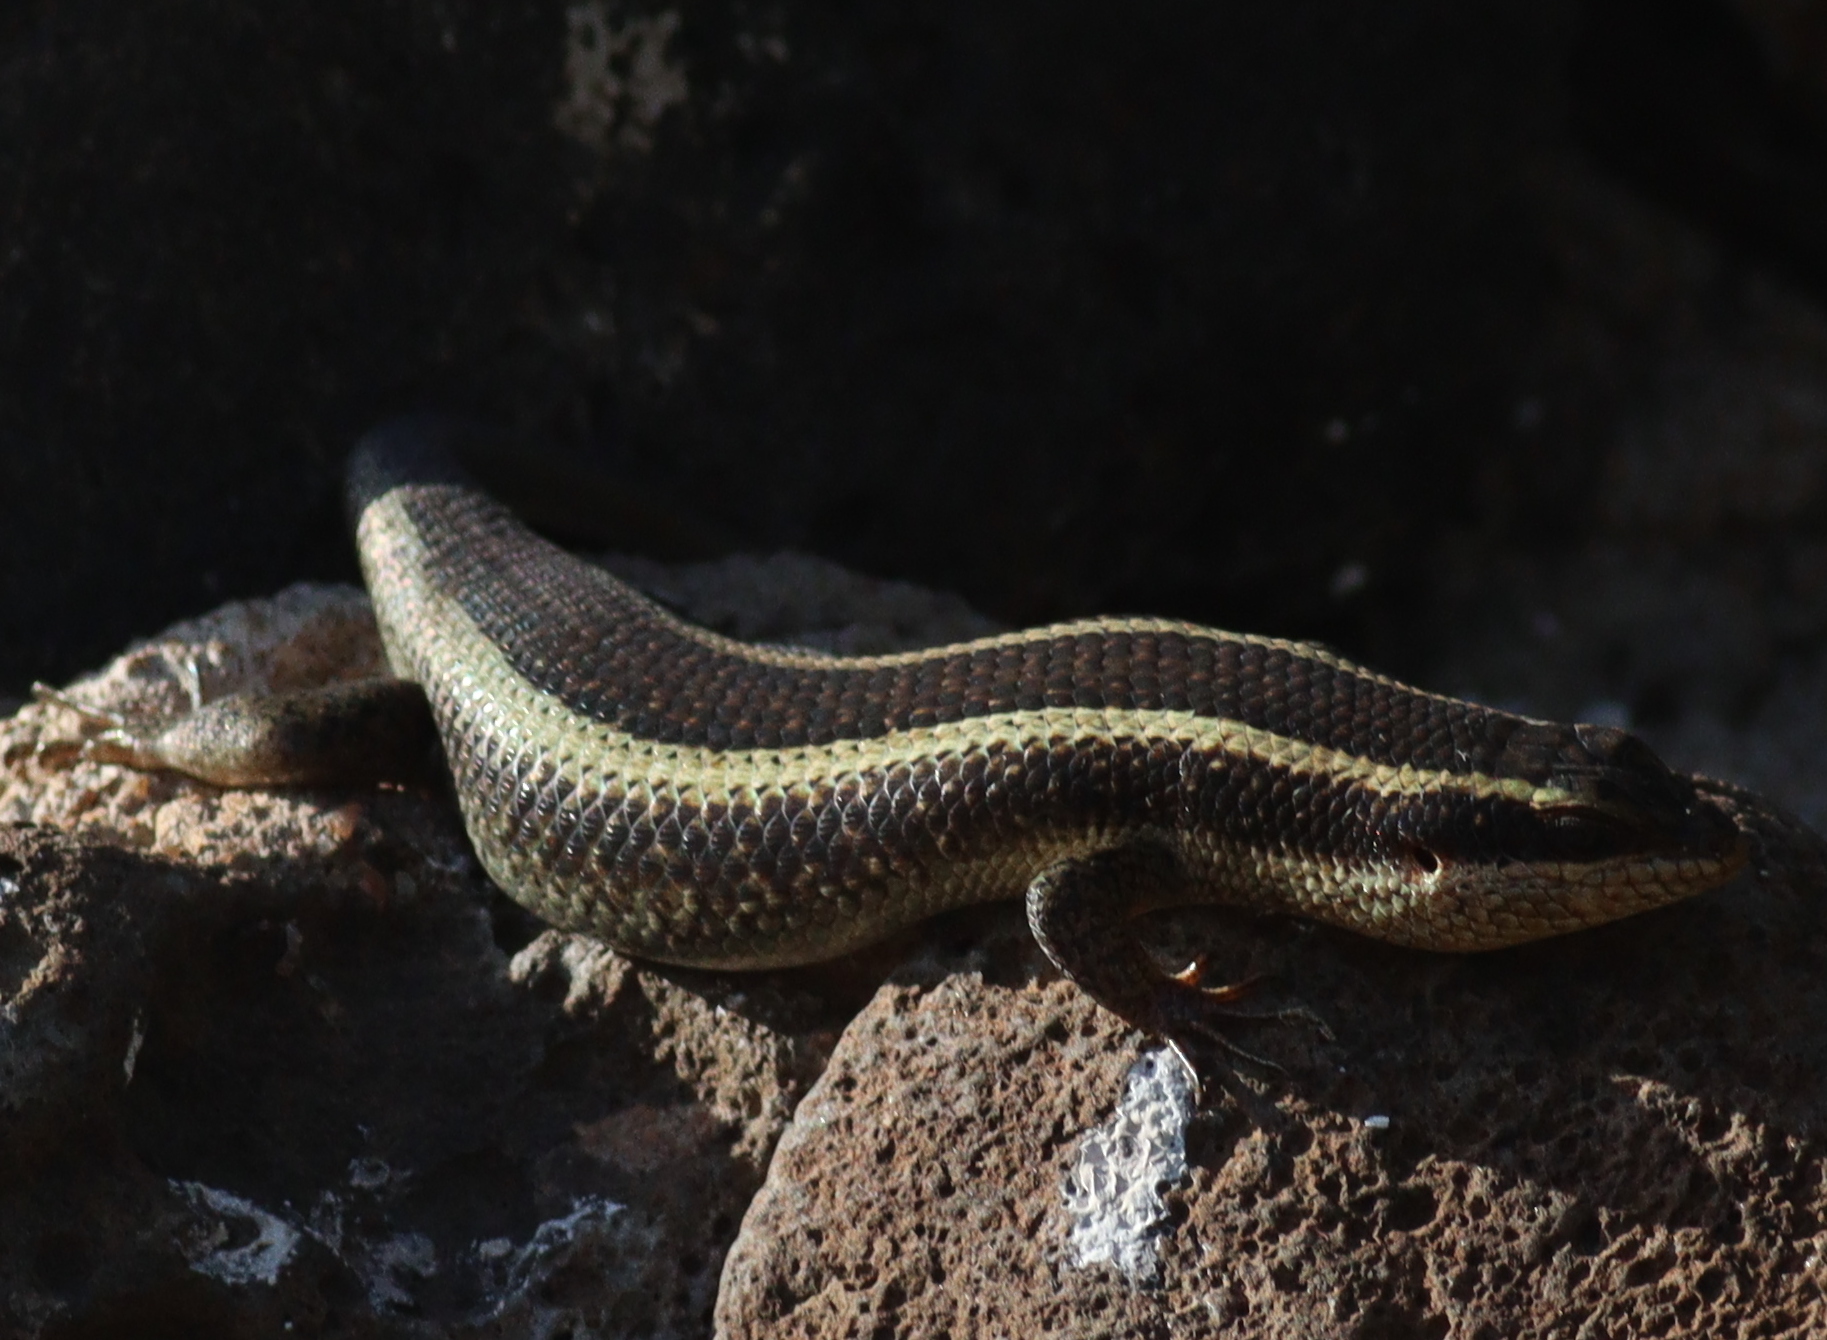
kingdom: Animalia
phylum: Chordata
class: Squamata
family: Scincidae
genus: Trachylepis
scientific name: Trachylepis striata
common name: African striped mabuya
